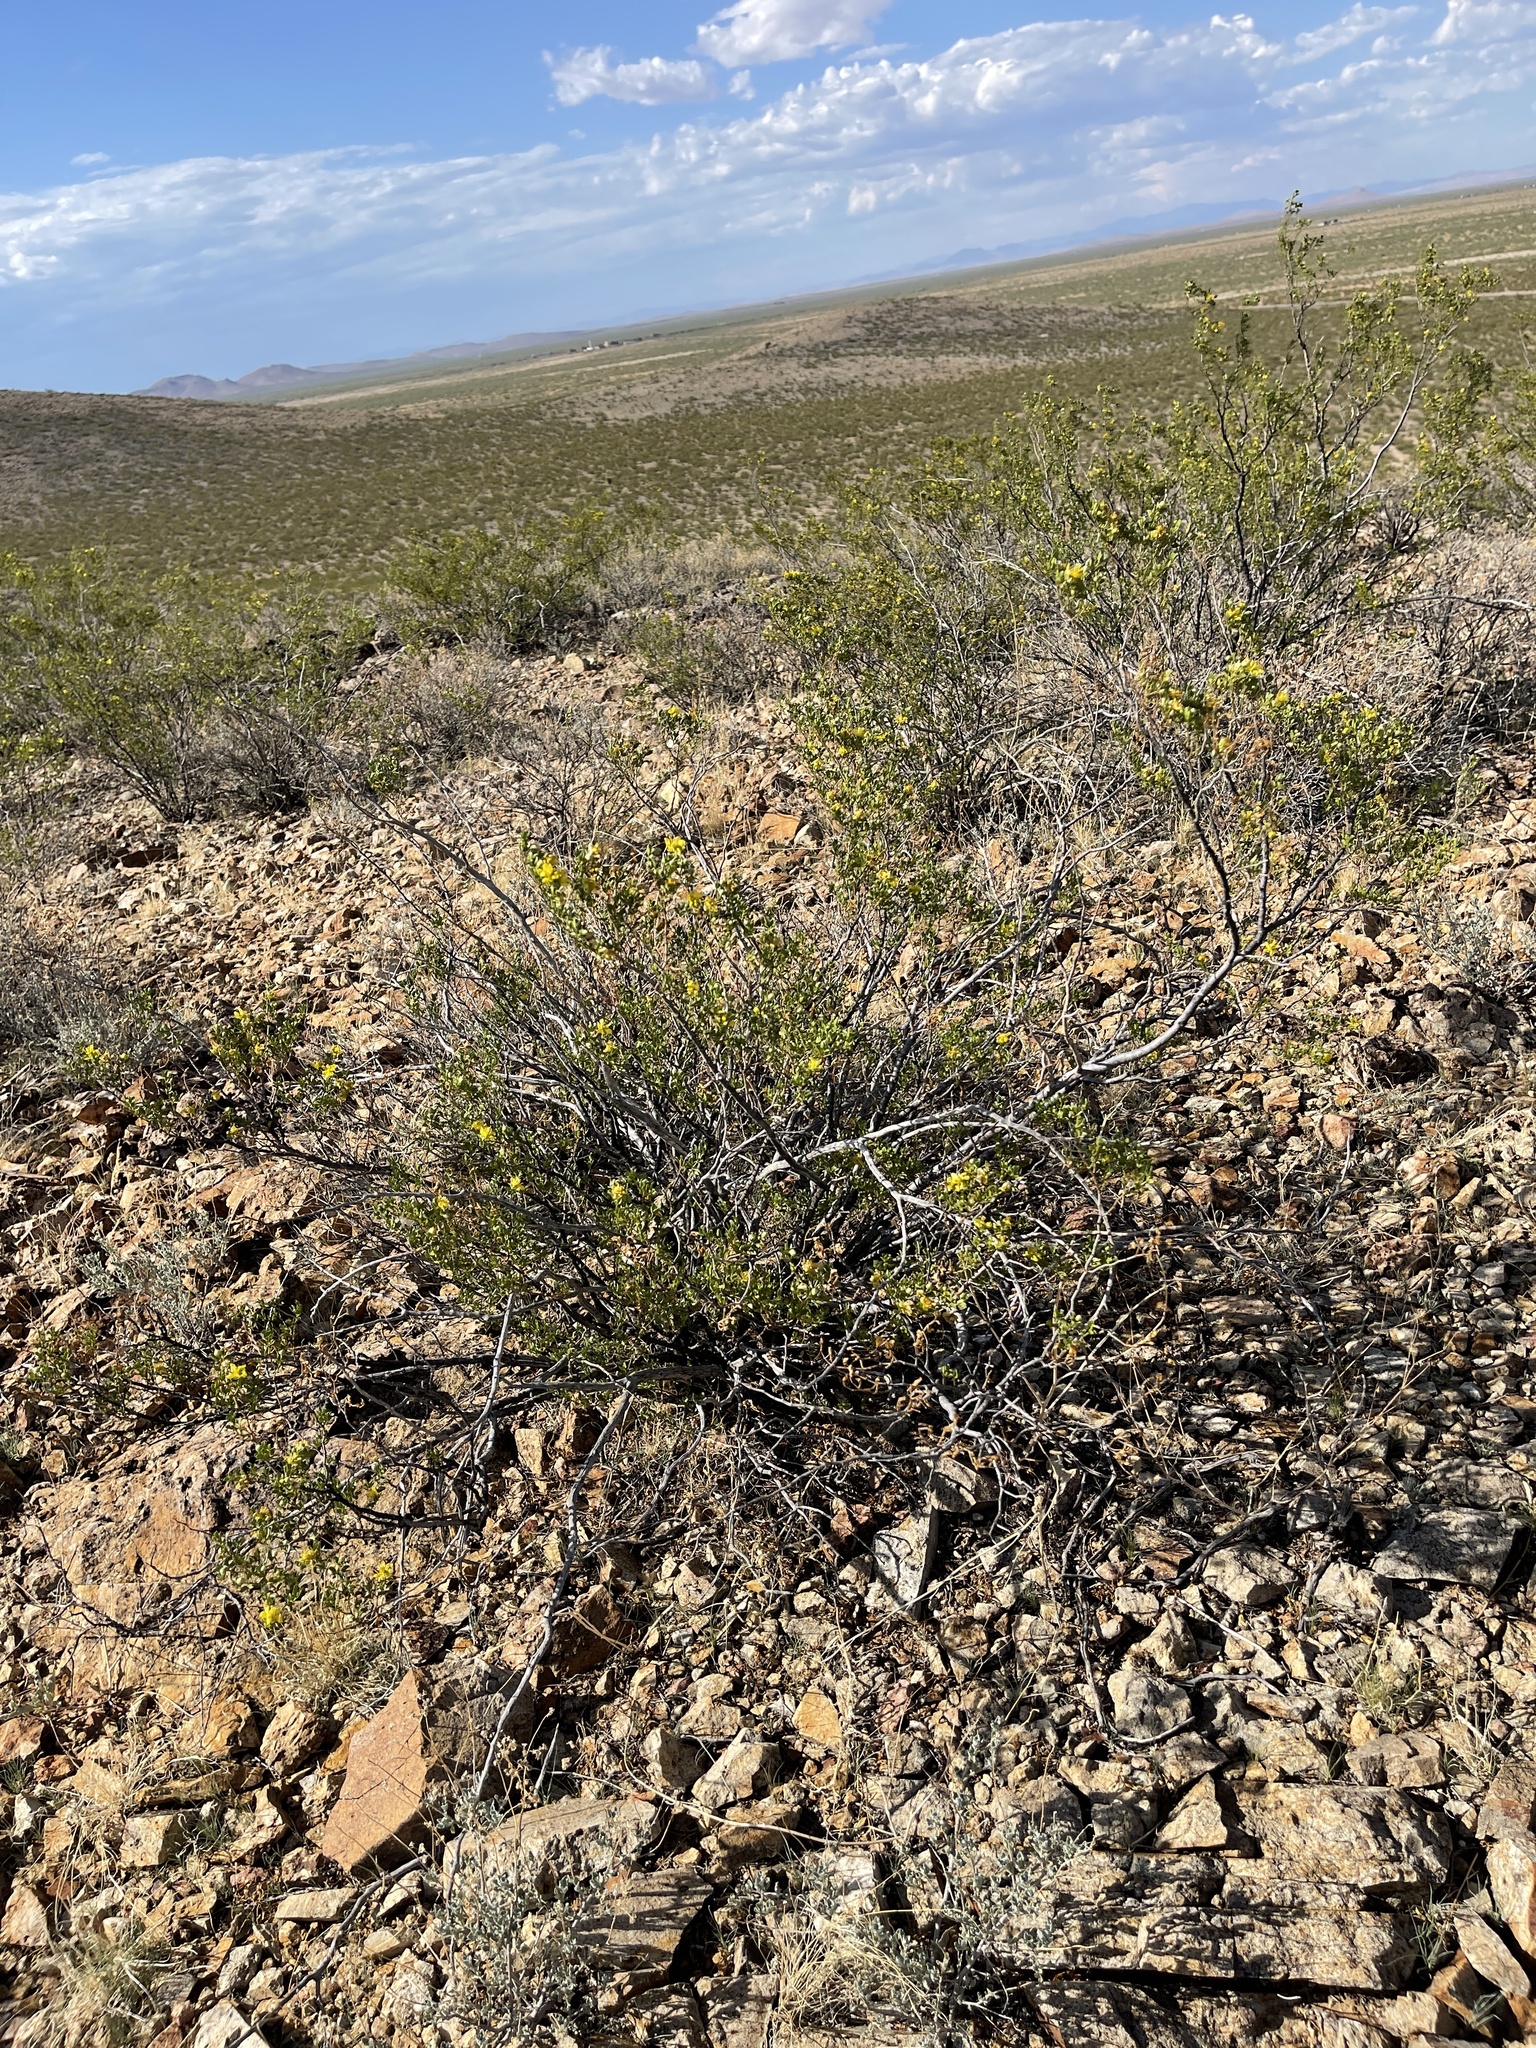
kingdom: Plantae
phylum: Tracheophyta
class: Magnoliopsida
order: Zygophyllales
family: Zygophyllaceae
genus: Larrea
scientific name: Larrea tridentata
